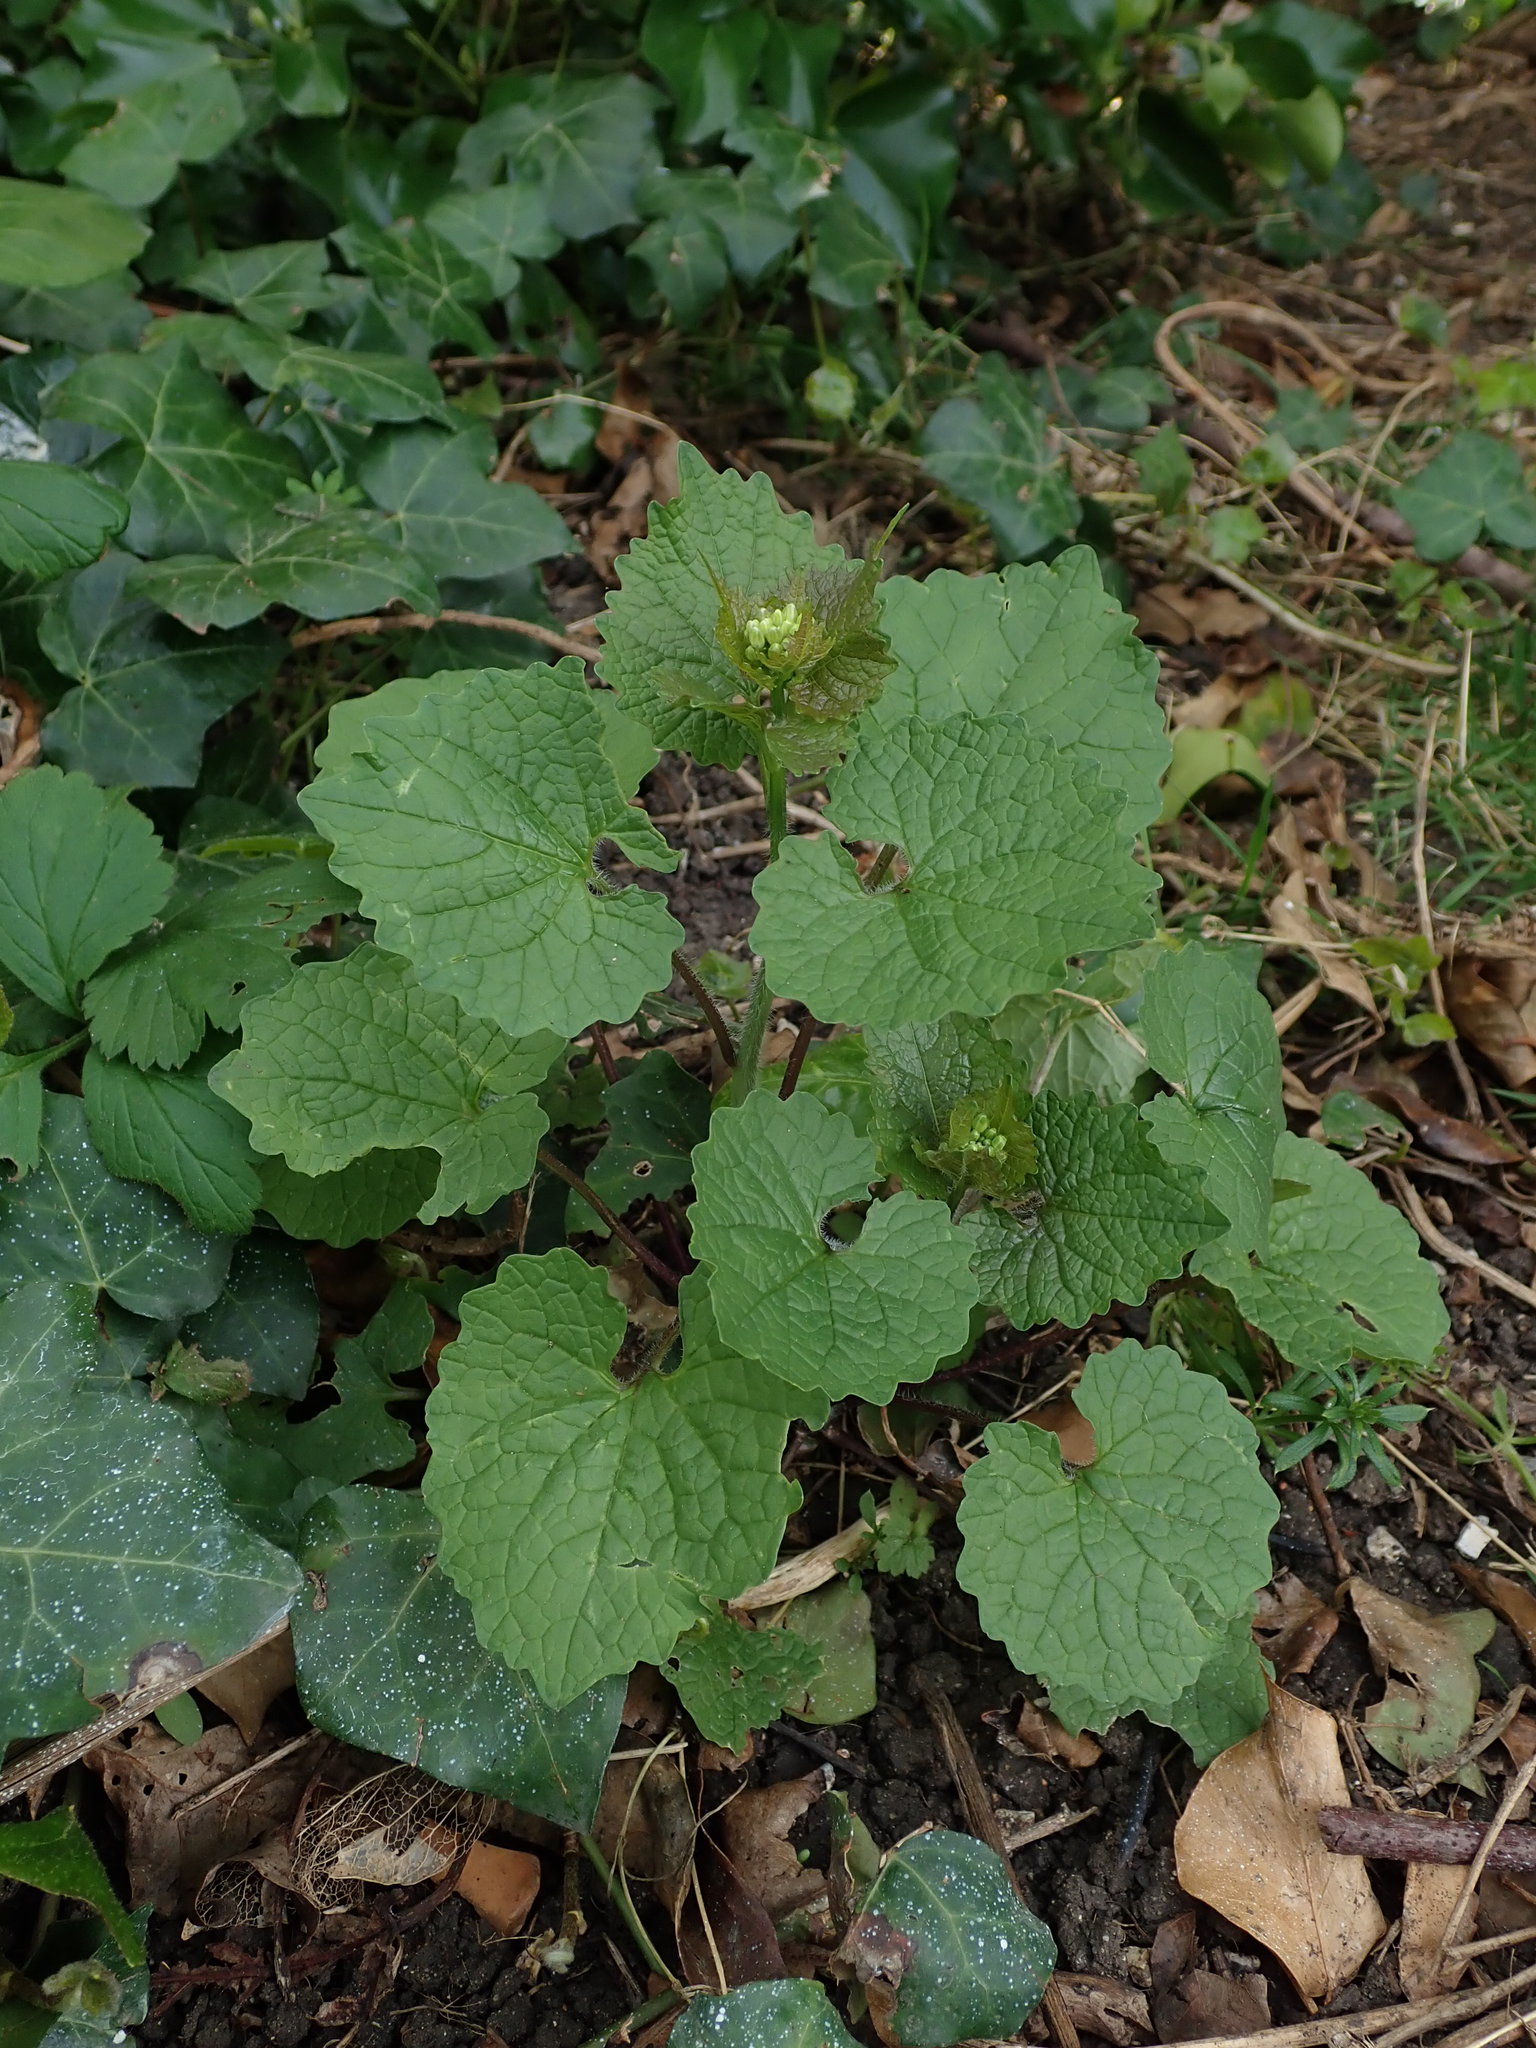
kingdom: Plantae
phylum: Tracheophyta
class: Magnoliopsida
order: Brassicales
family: Brassicaceae
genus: Alliaria
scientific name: Alliaria petiolata
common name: Garlic mustard
